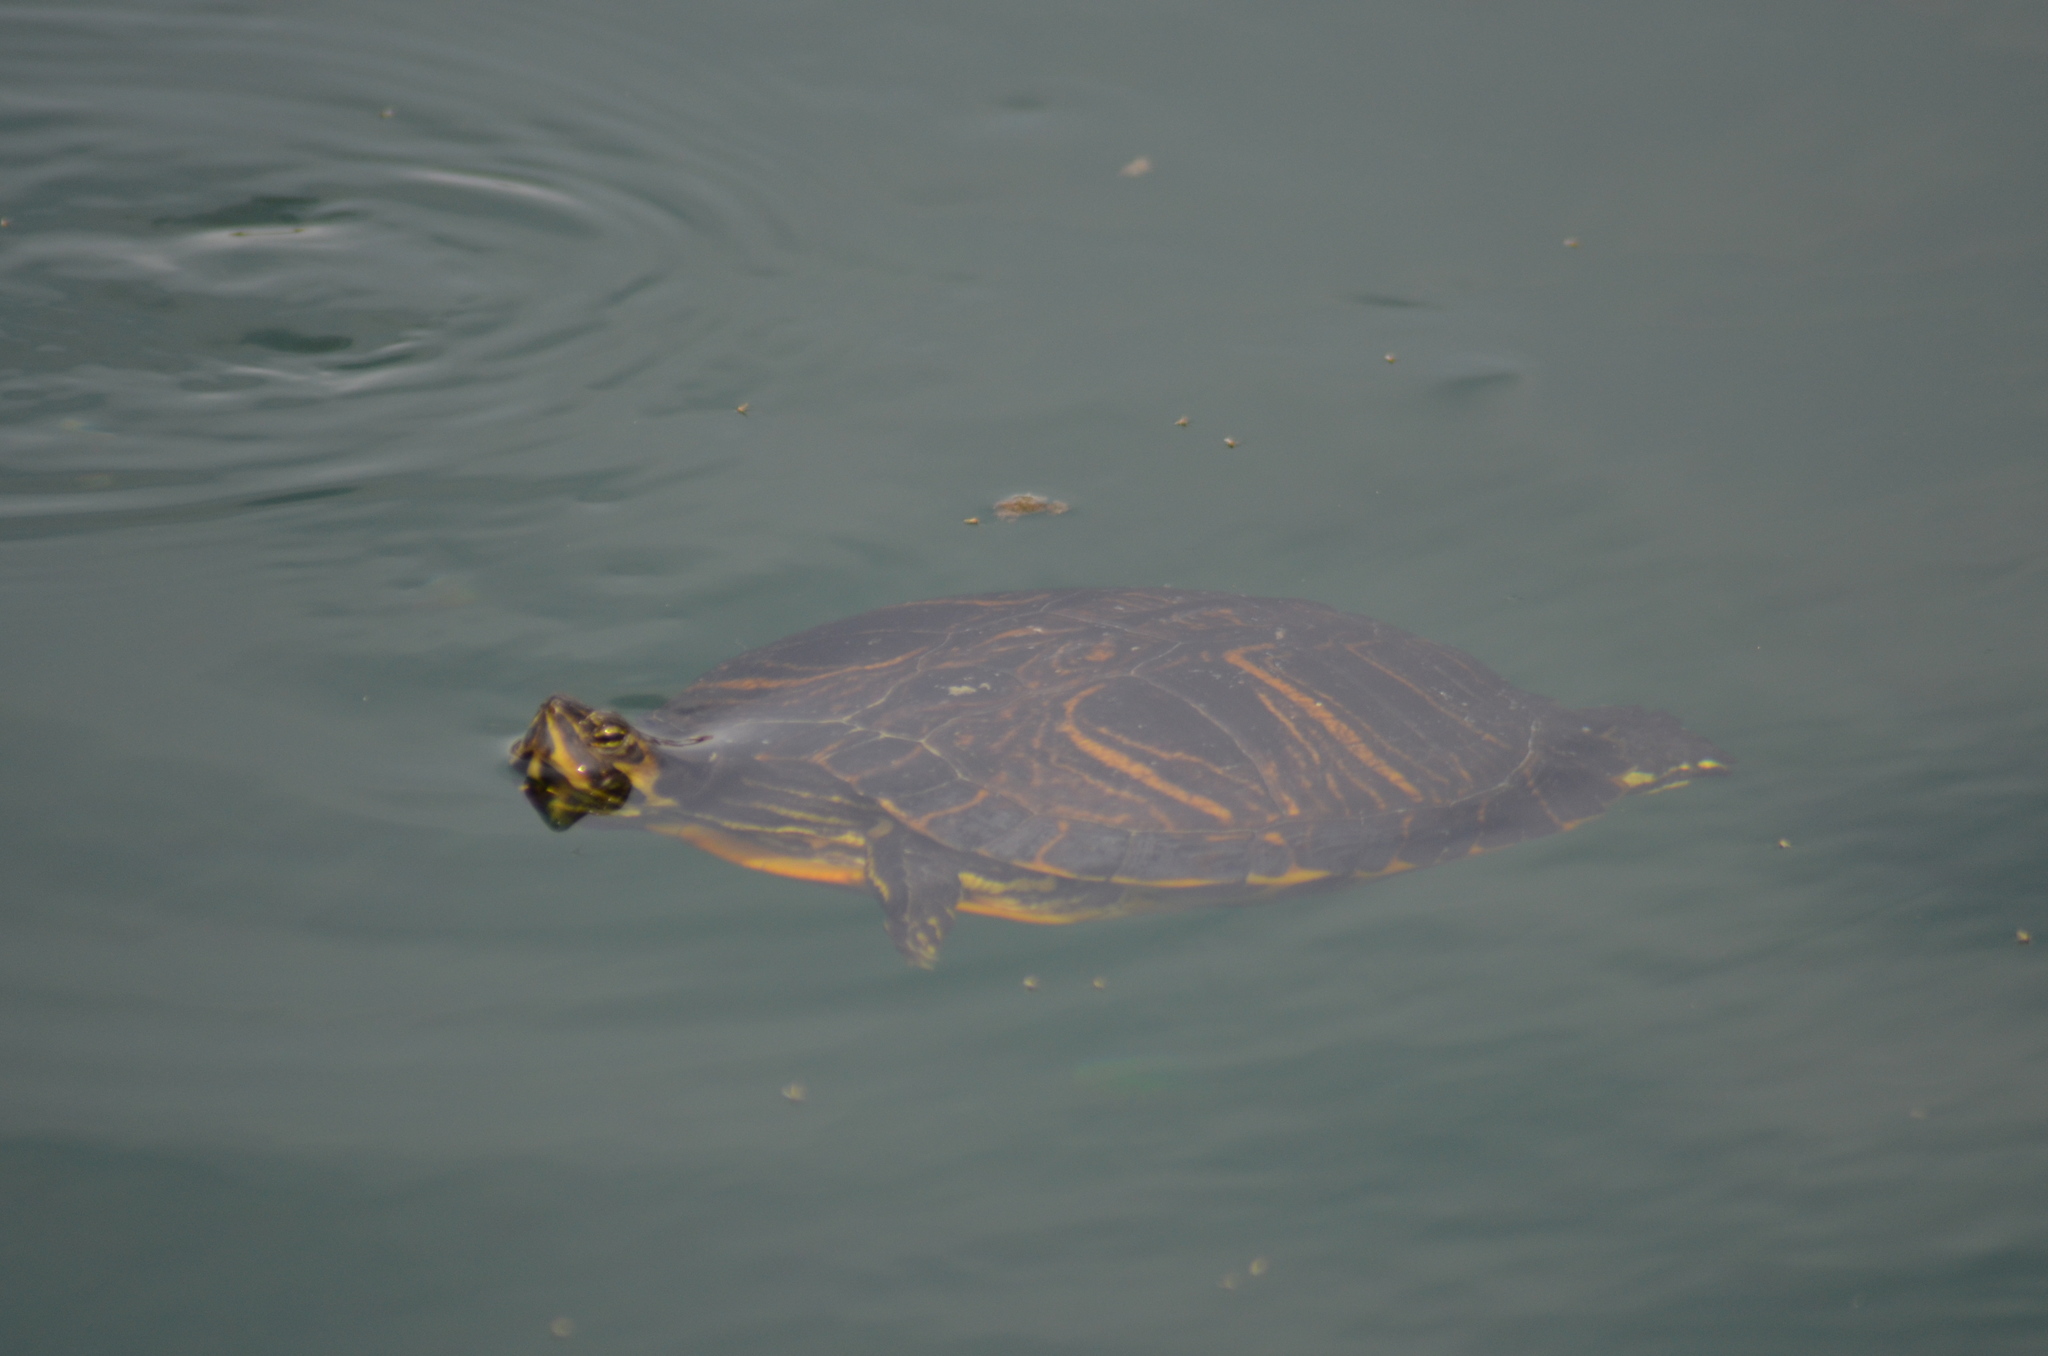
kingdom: Animalia
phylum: Chordata
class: Testudines
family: Emydidae
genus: Trachemys
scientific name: Trachemys scripta
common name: Slider
